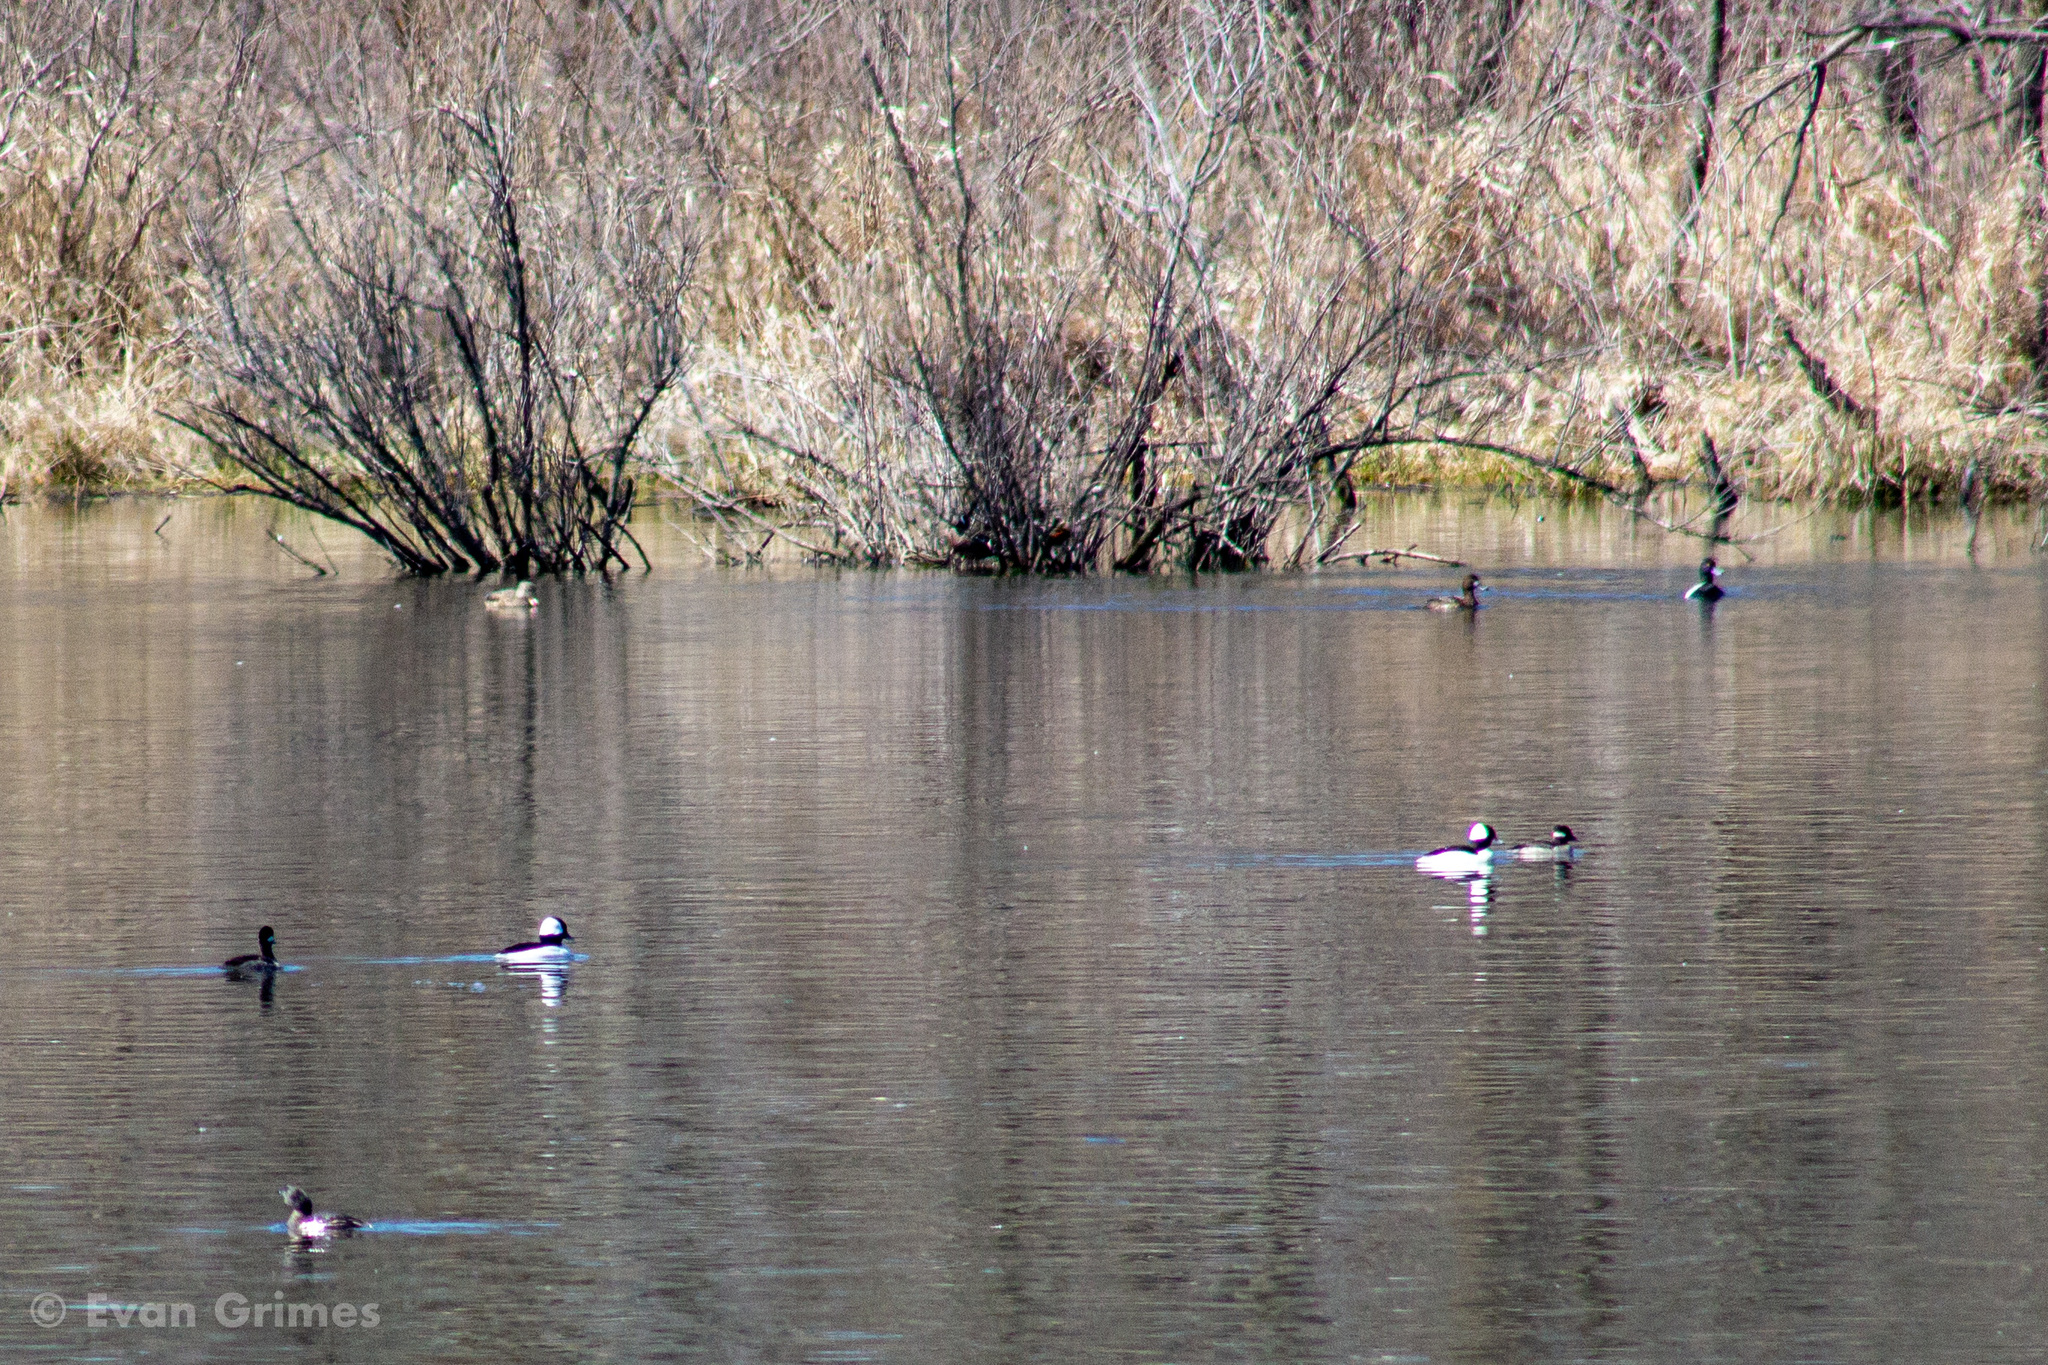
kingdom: Animalia
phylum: Chordata
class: Aves
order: Anseriformes
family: Anatidae
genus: Bucephala
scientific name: Bucephala albeola
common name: Bufflehead
